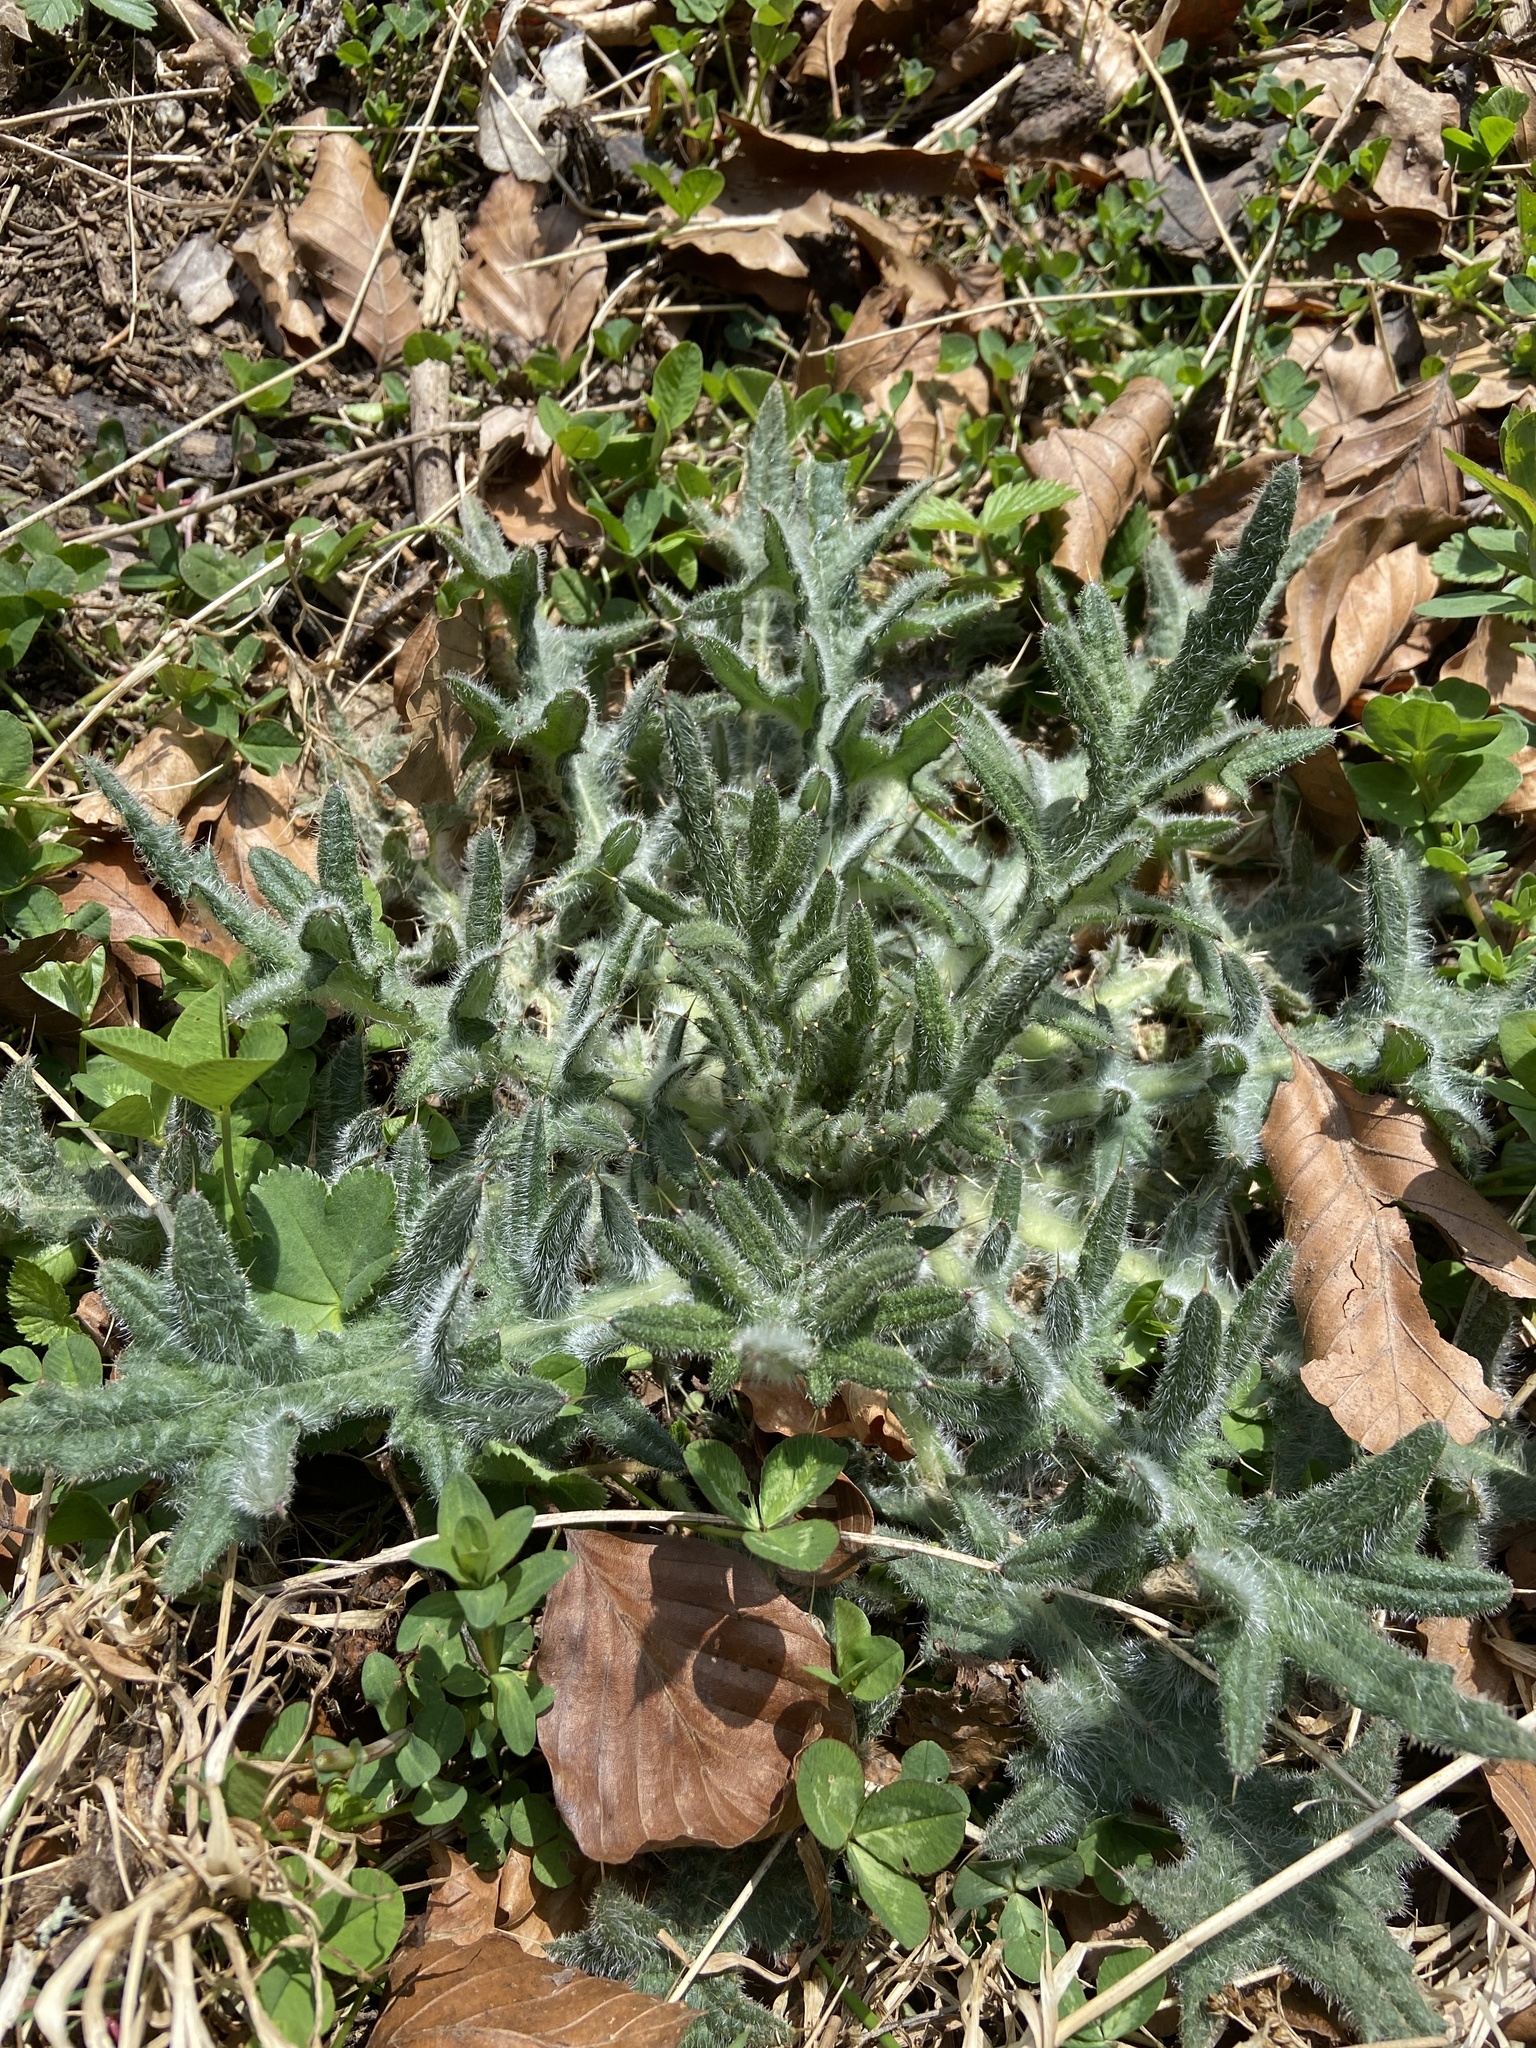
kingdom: Plantae
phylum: Tracheophyta
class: Magnoliopsida
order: Asterales
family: Asteraceae
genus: Cirsium
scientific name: Cirsium vulgare
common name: Bull thistle
